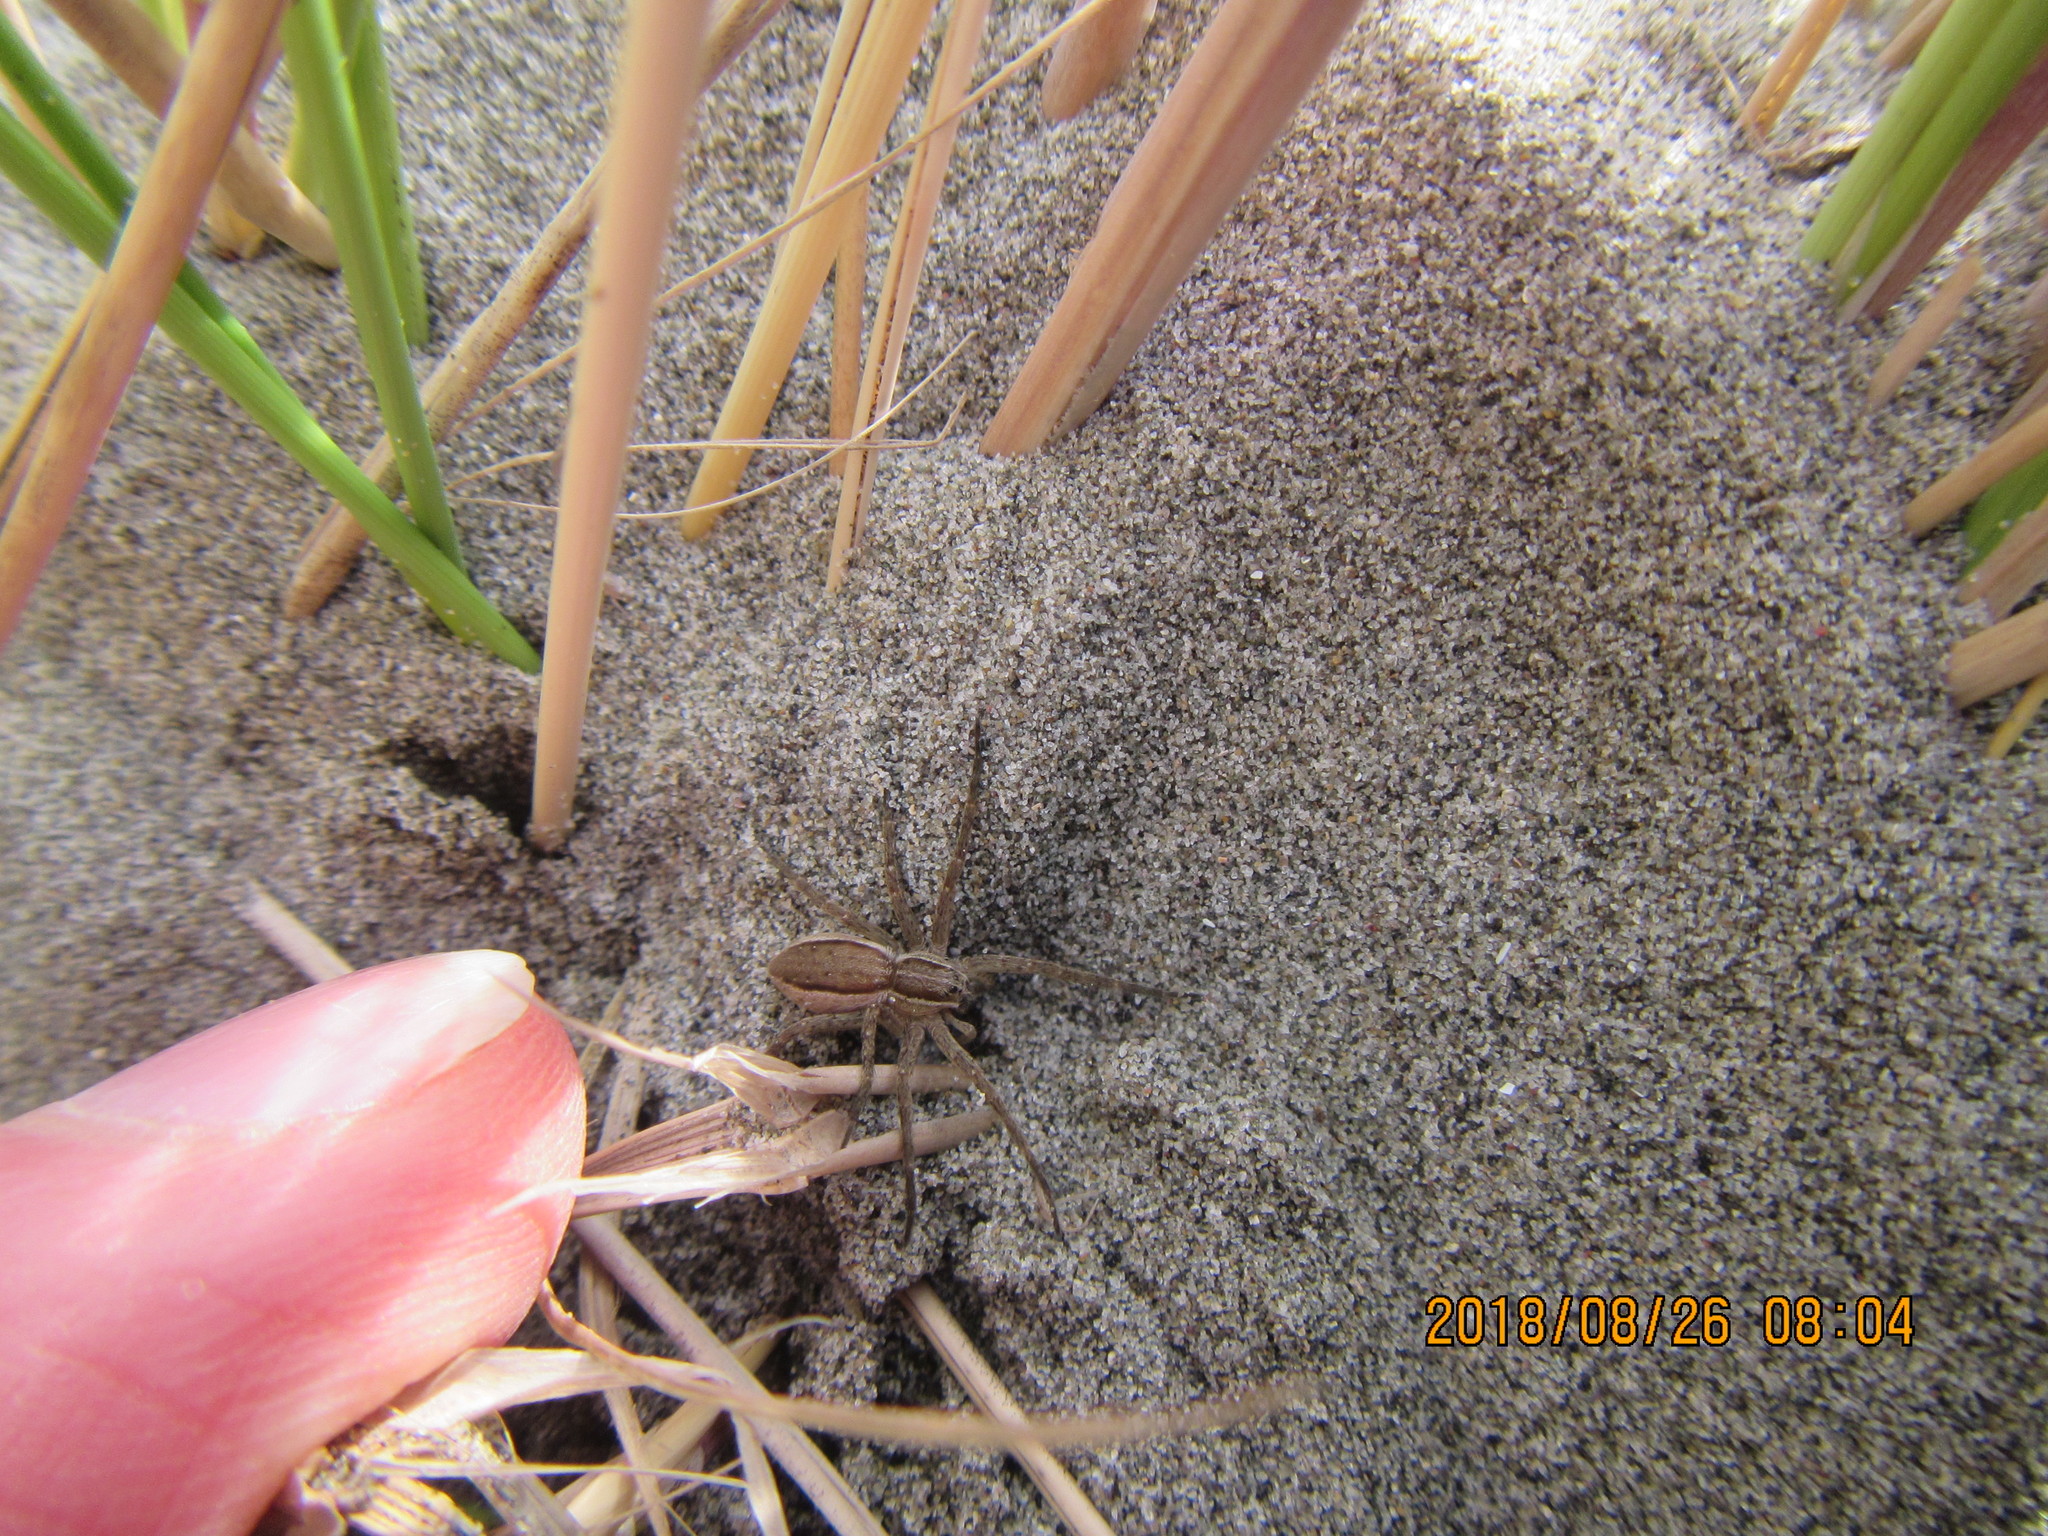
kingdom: Animalia
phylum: Arthropoda
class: Arachnida
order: Araneae
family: Pisauridae
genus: Dolomedes
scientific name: Dolomedes minor
